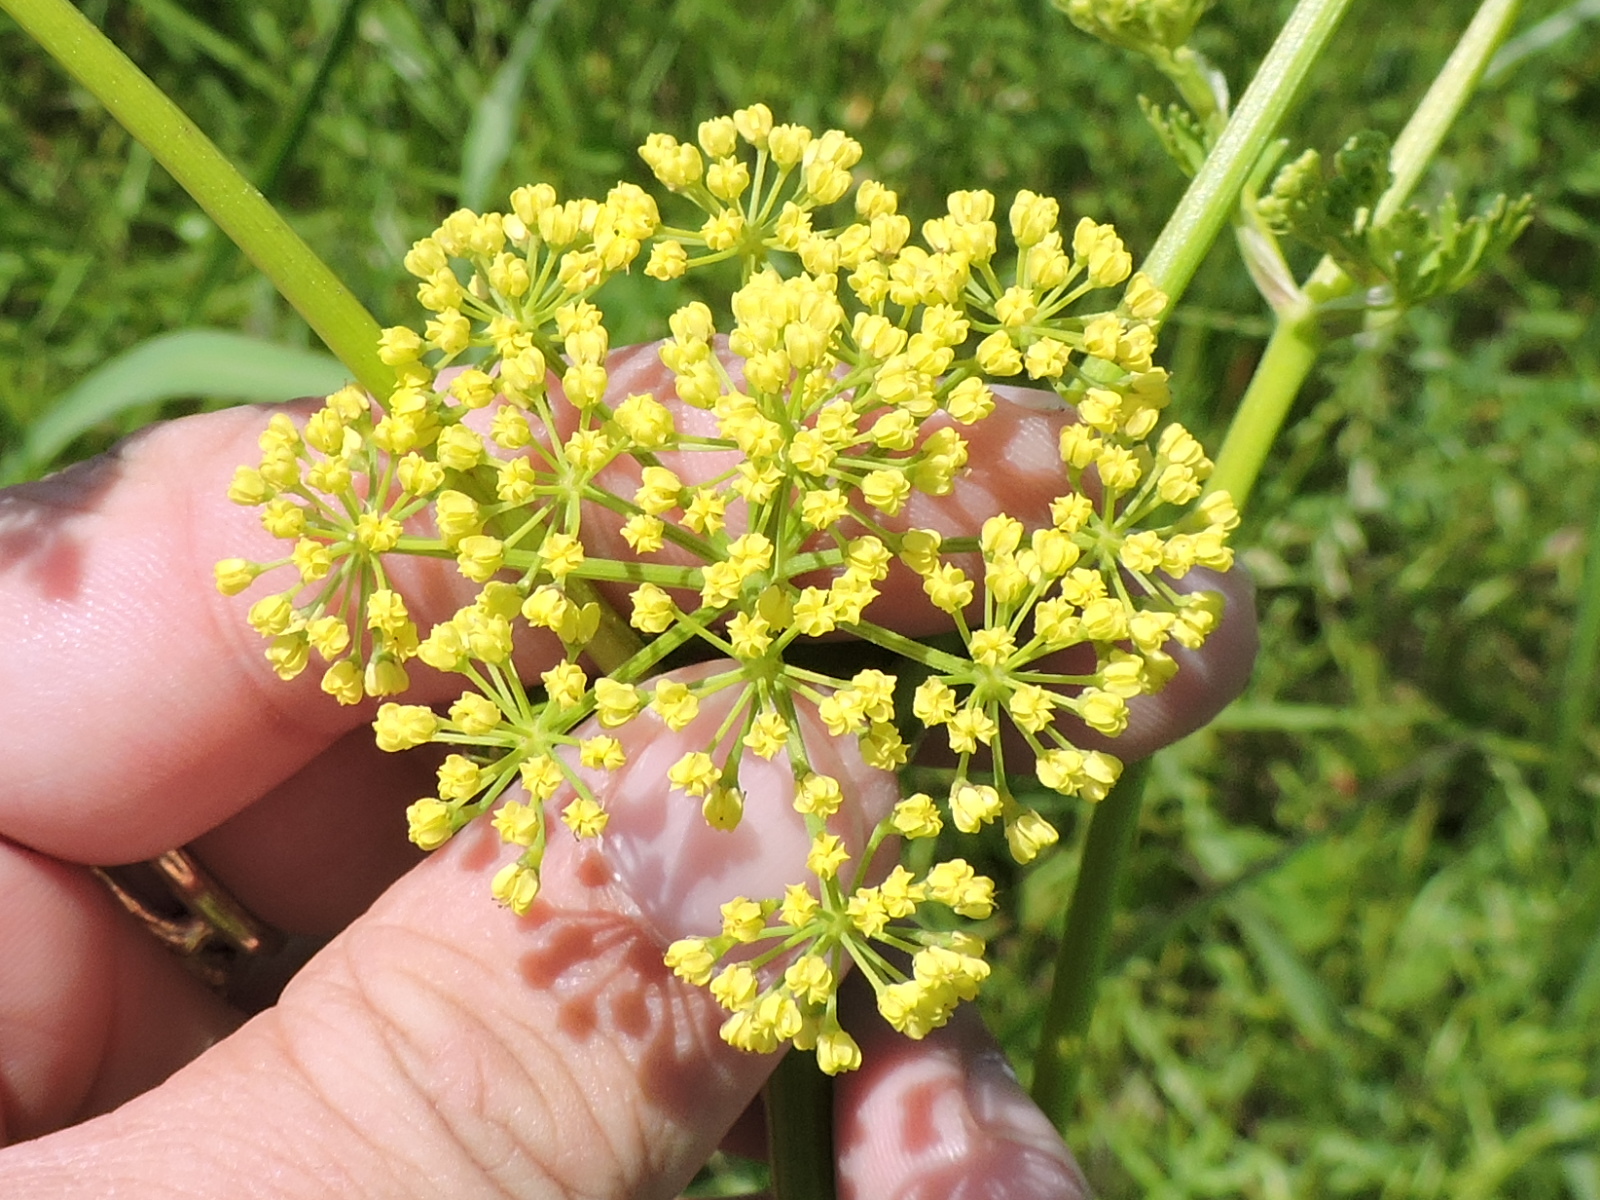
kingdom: Plantae
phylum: Tracheophyta
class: Magnoliopsida
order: Apiales
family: Apiaceae
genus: Polytaenia
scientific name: Polytaenia texana
